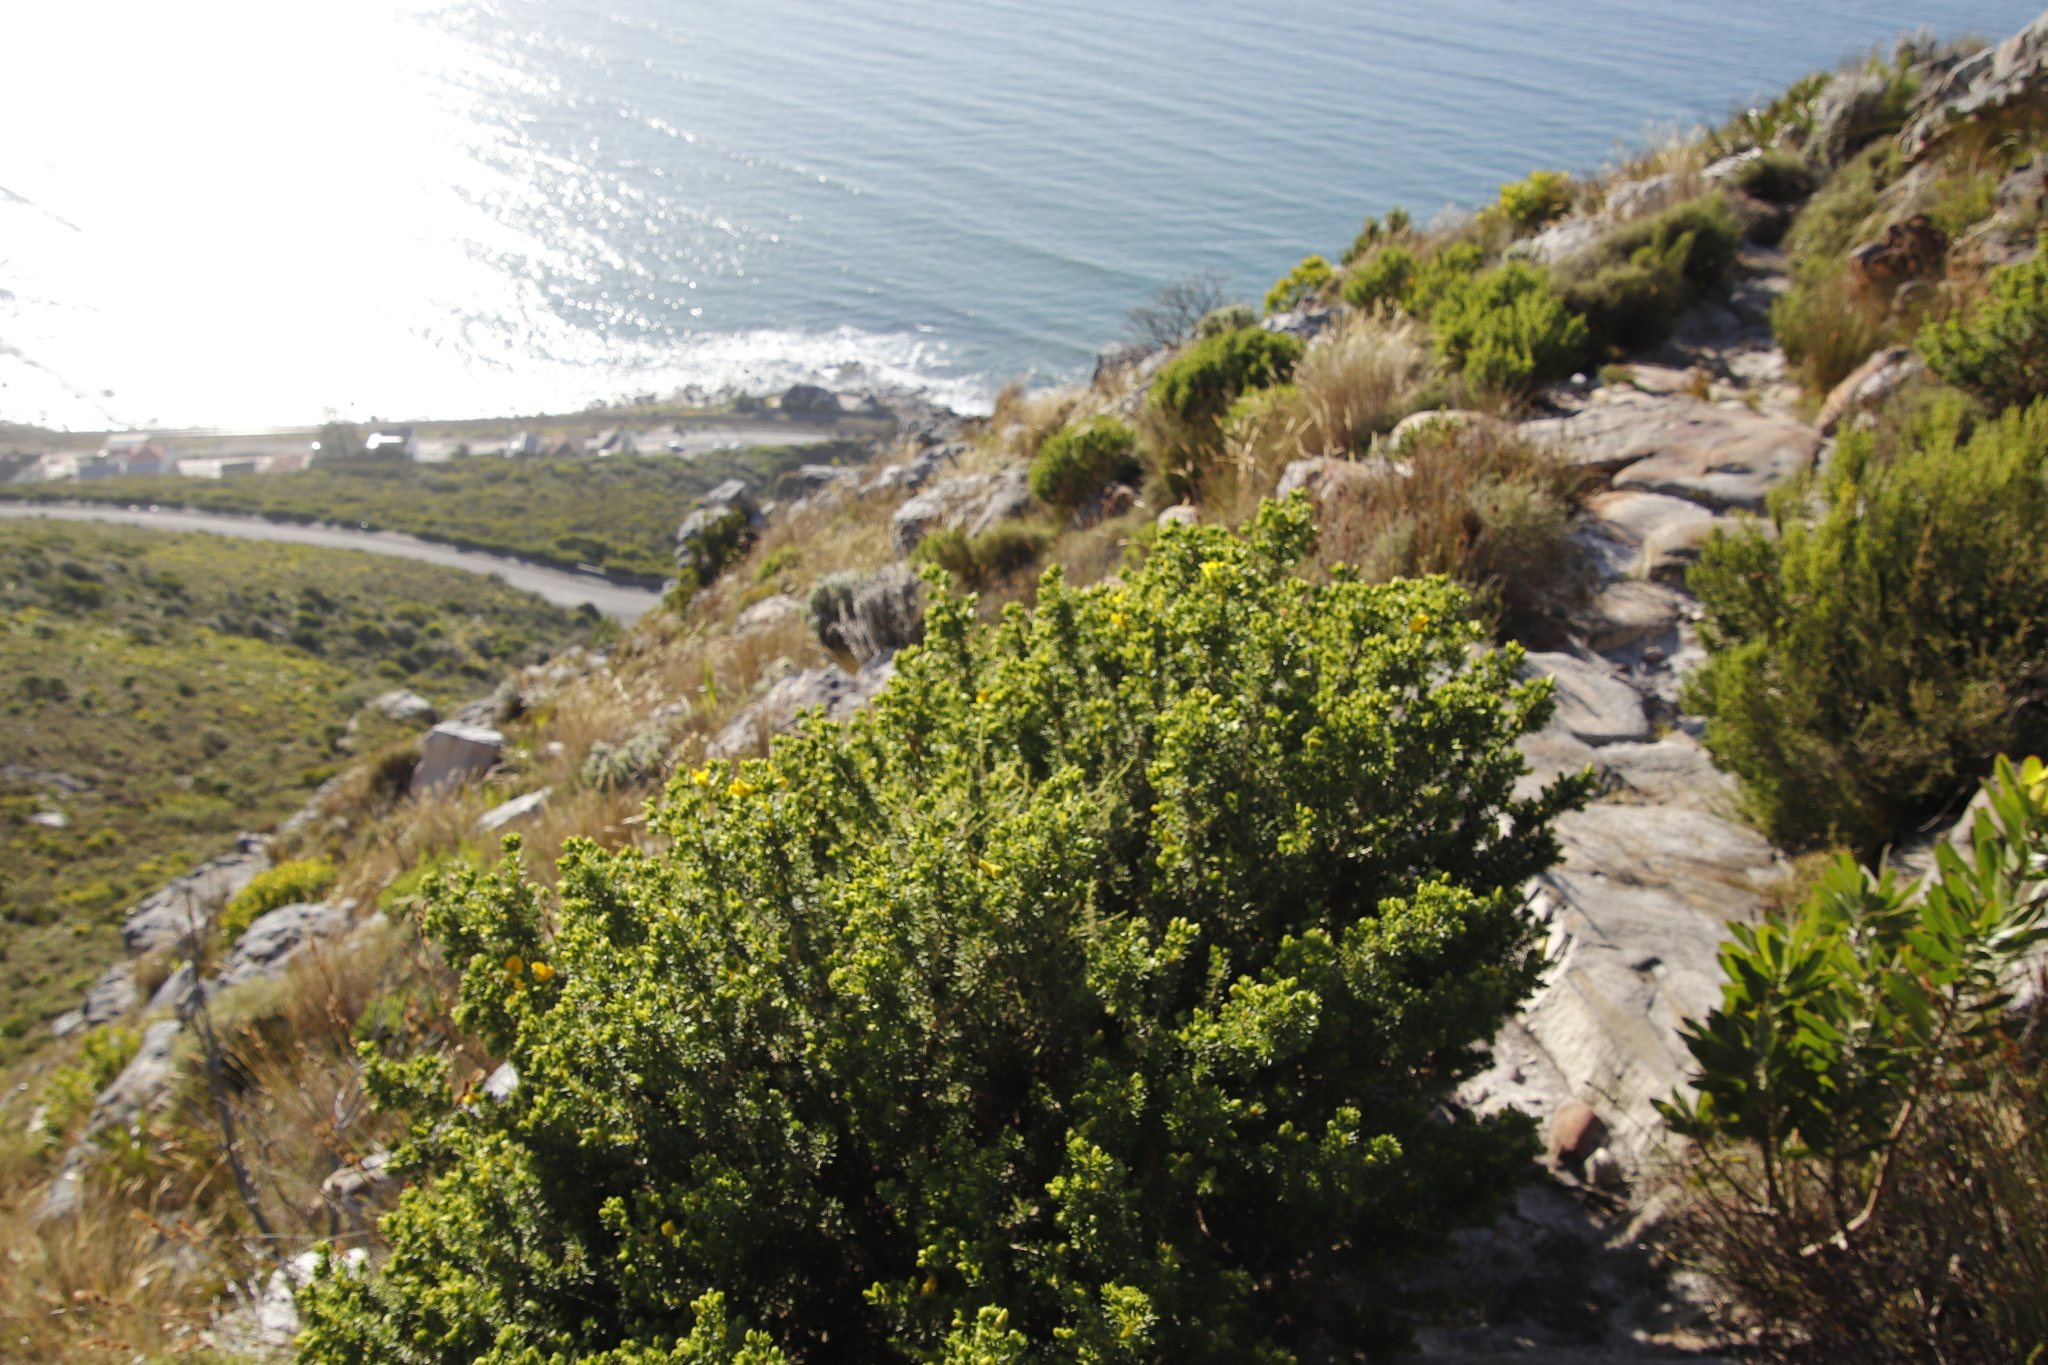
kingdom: Plantae
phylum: Tracheophyta
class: Magnoliopsida
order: Fabales
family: Fabaceae
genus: Aspalathus
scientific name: Aspalathus capensis
